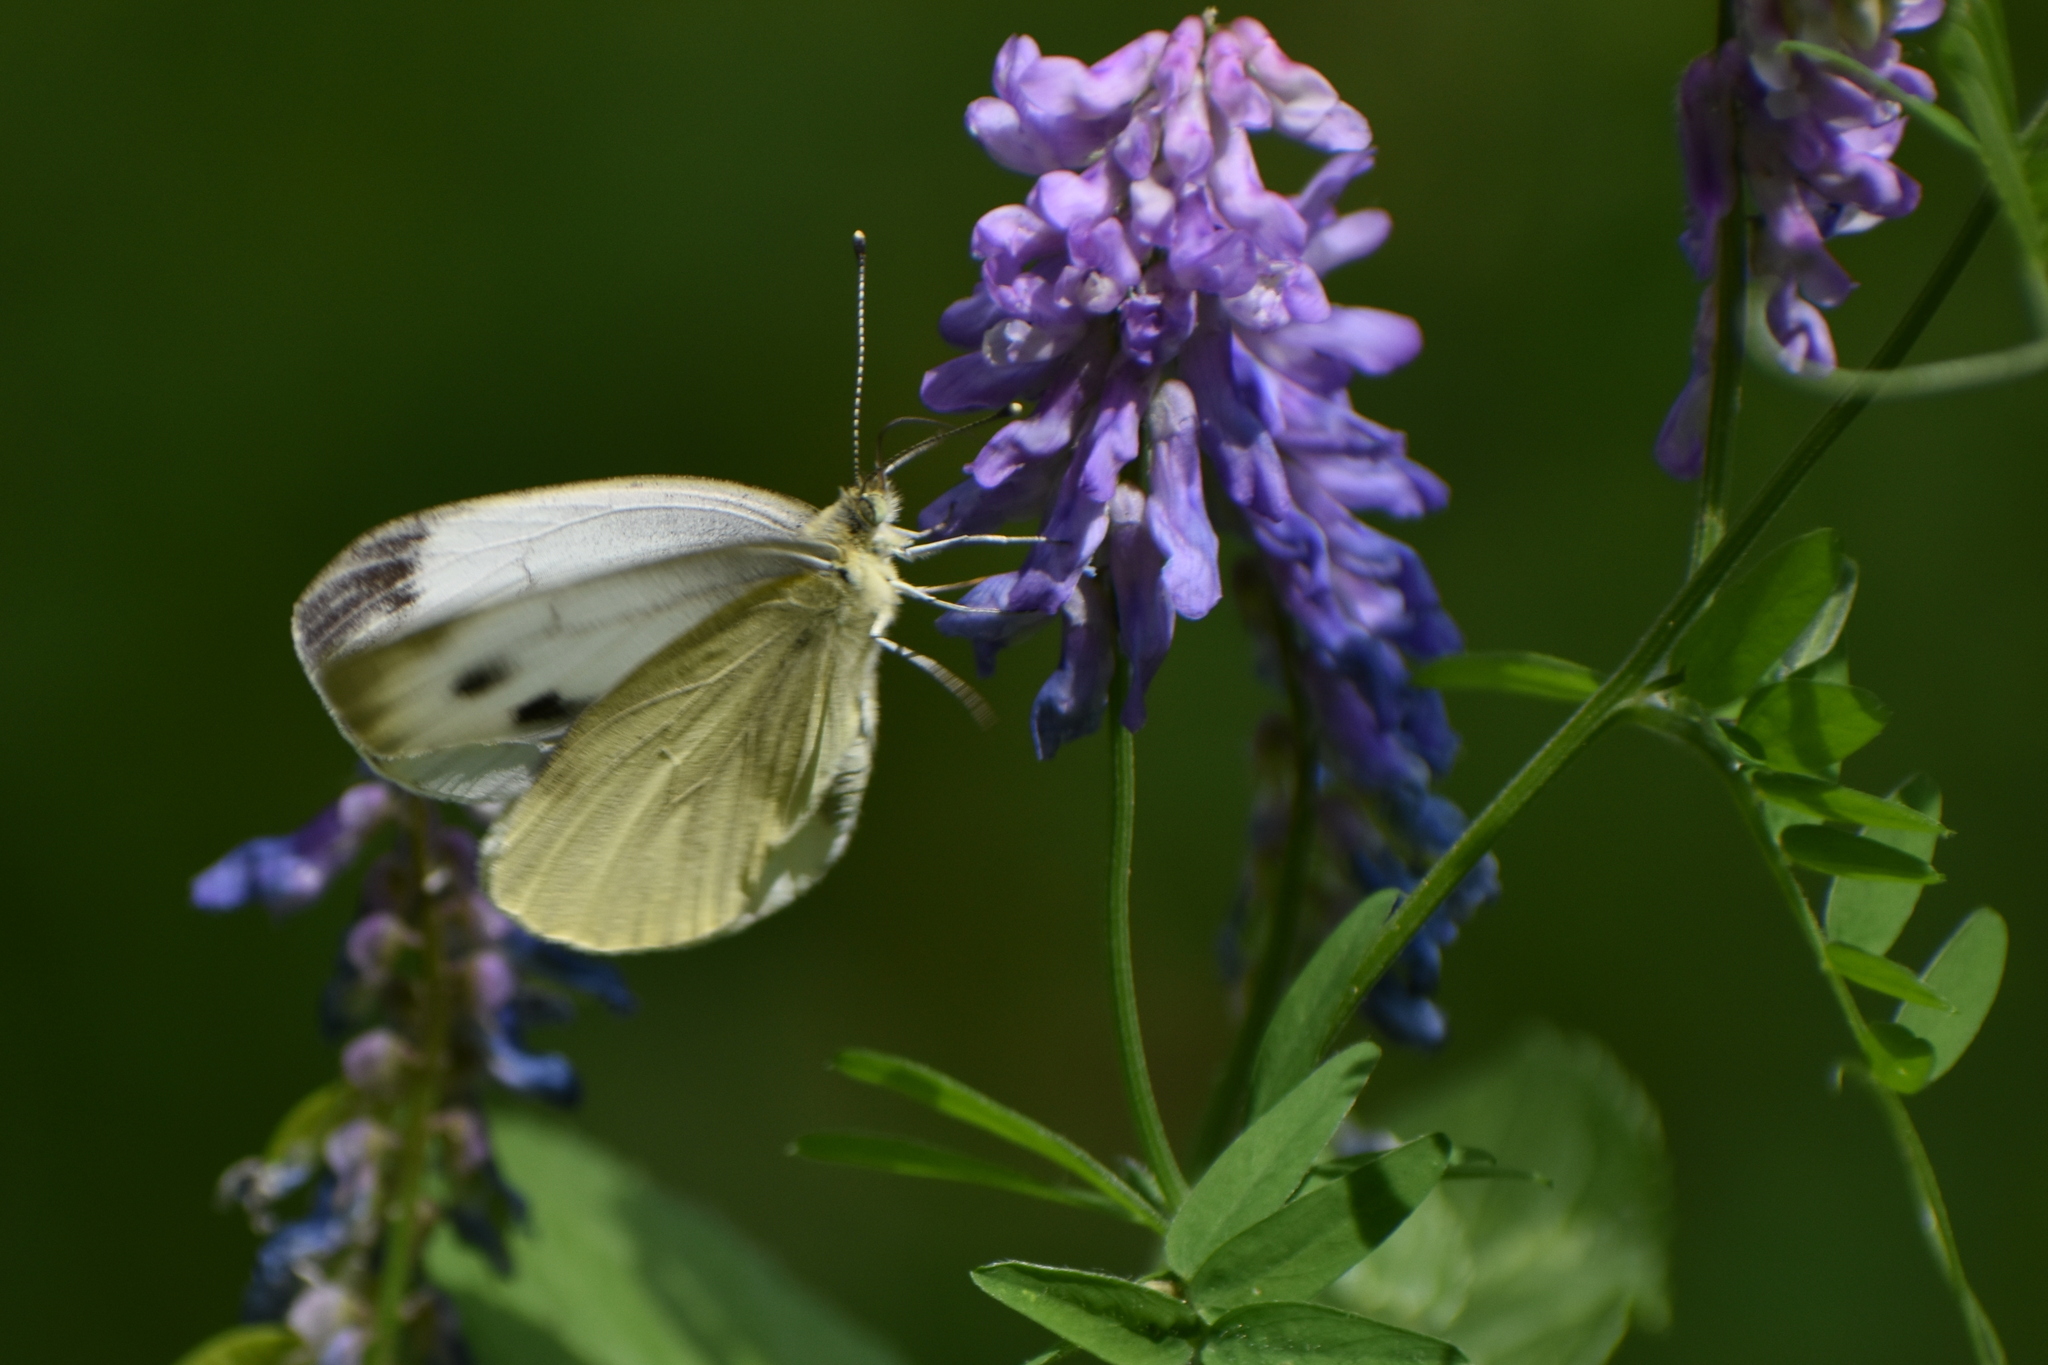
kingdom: Animalia
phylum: Arthropoda
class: Insecta
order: Lepidoptera
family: Pieridae
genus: Pieris
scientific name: Pieris napi
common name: Green-veined white
